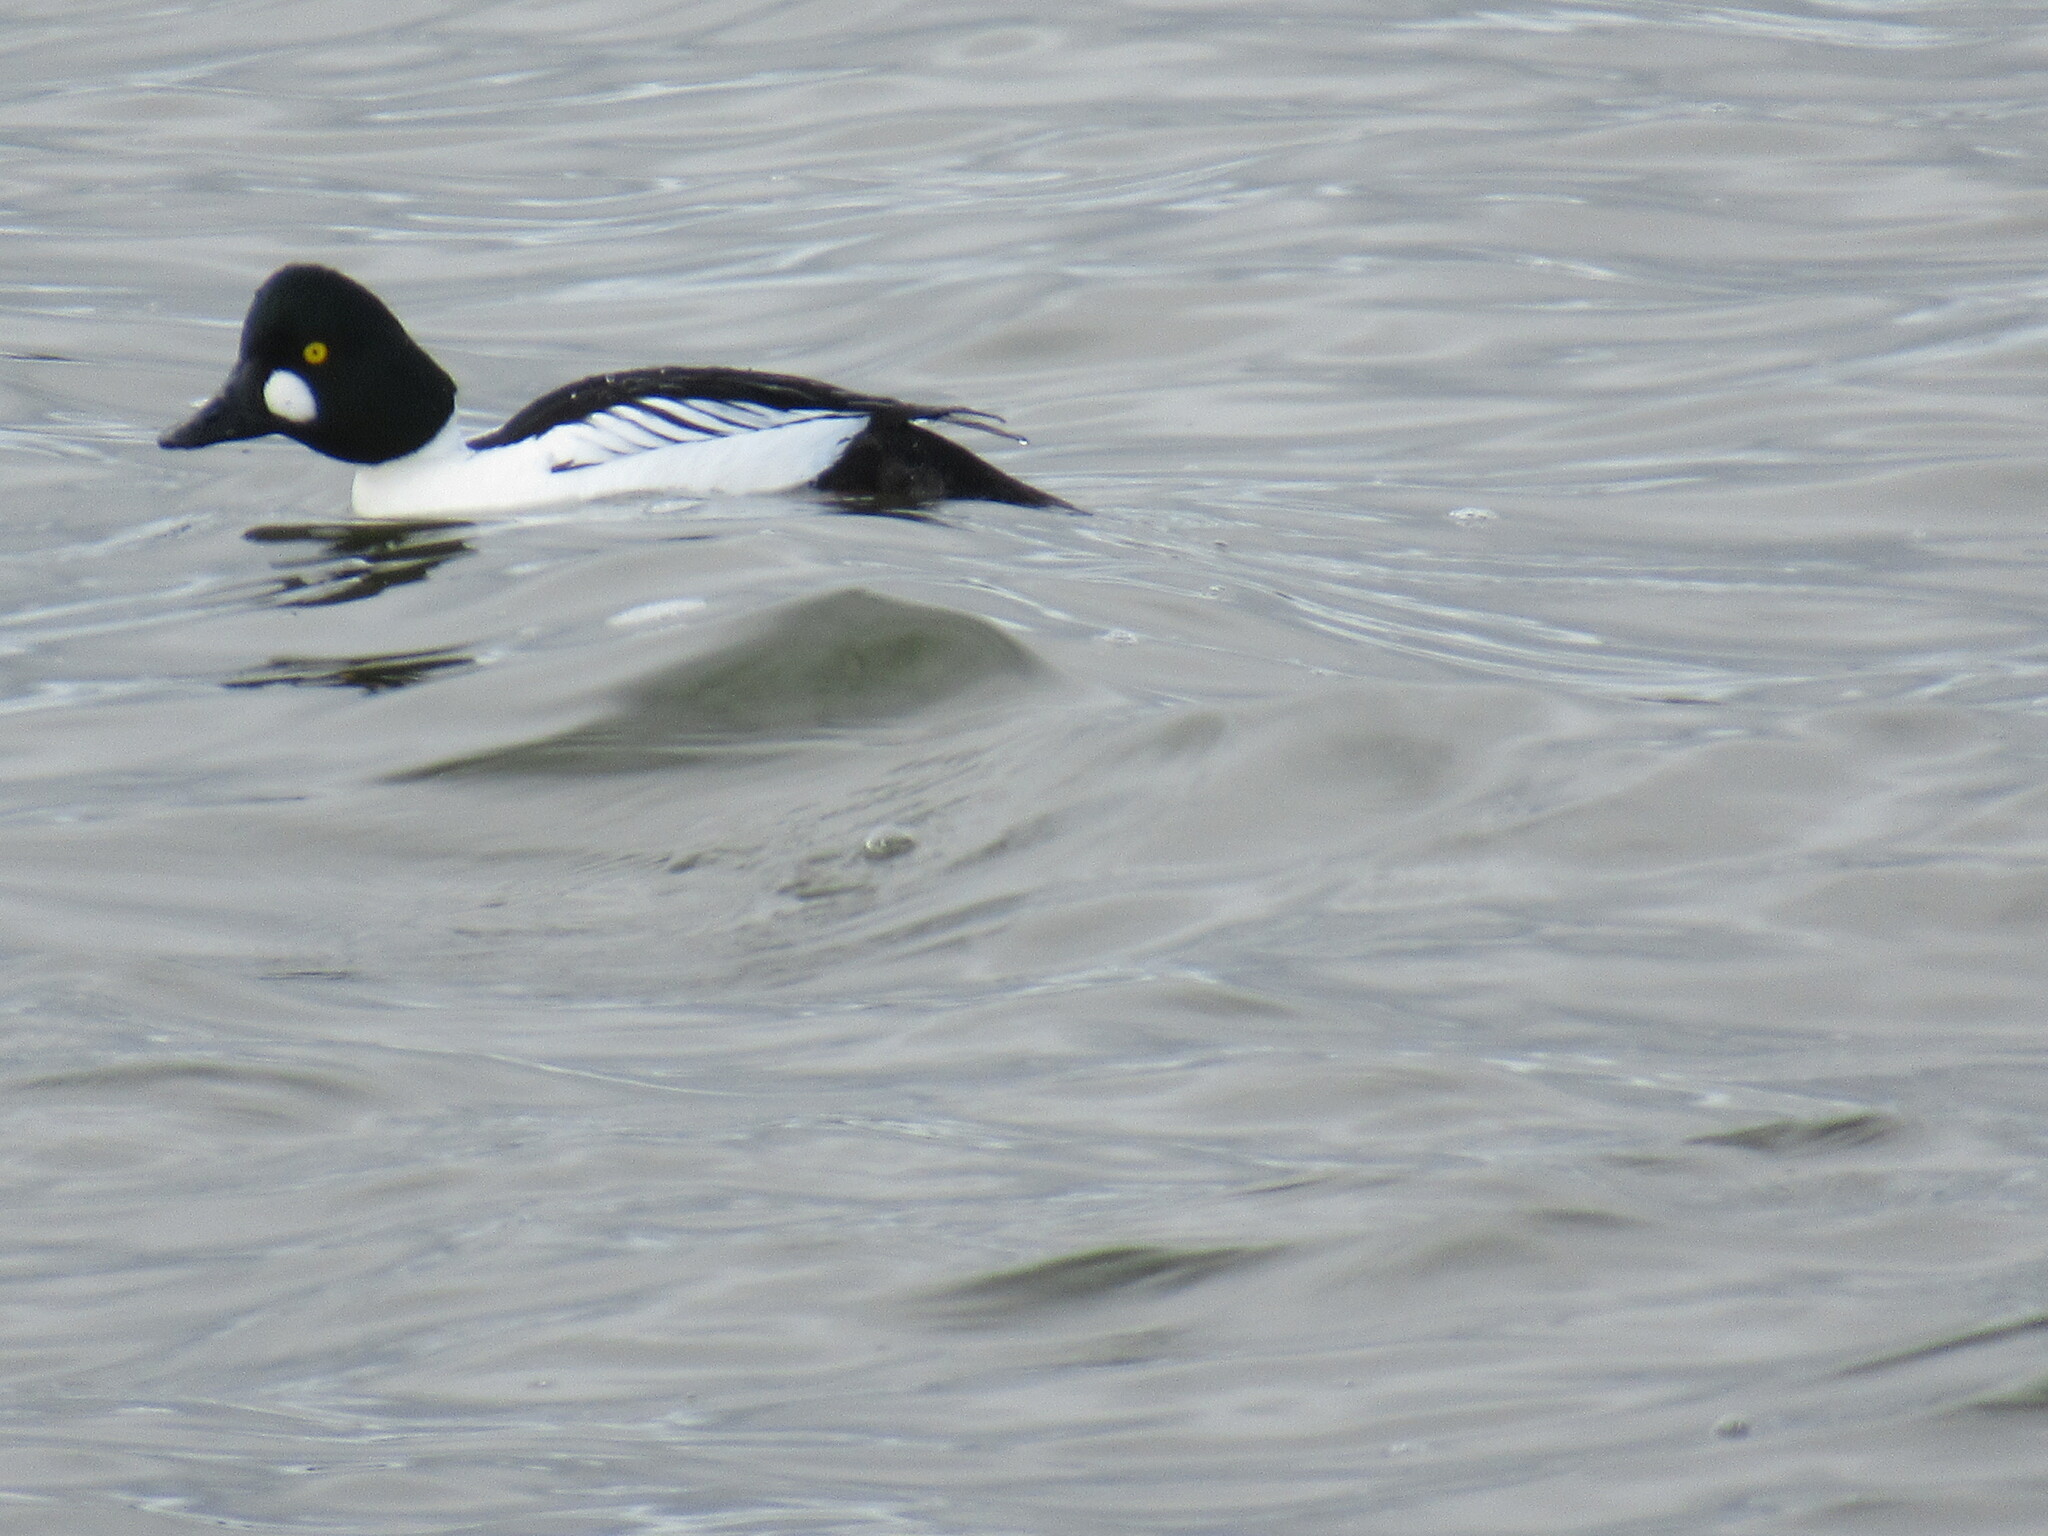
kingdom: Animalia
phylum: Chordata
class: Aves
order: Anseriformes
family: Anatidae
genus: Bucephala
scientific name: Bucephala clangula
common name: Common goldeneye
